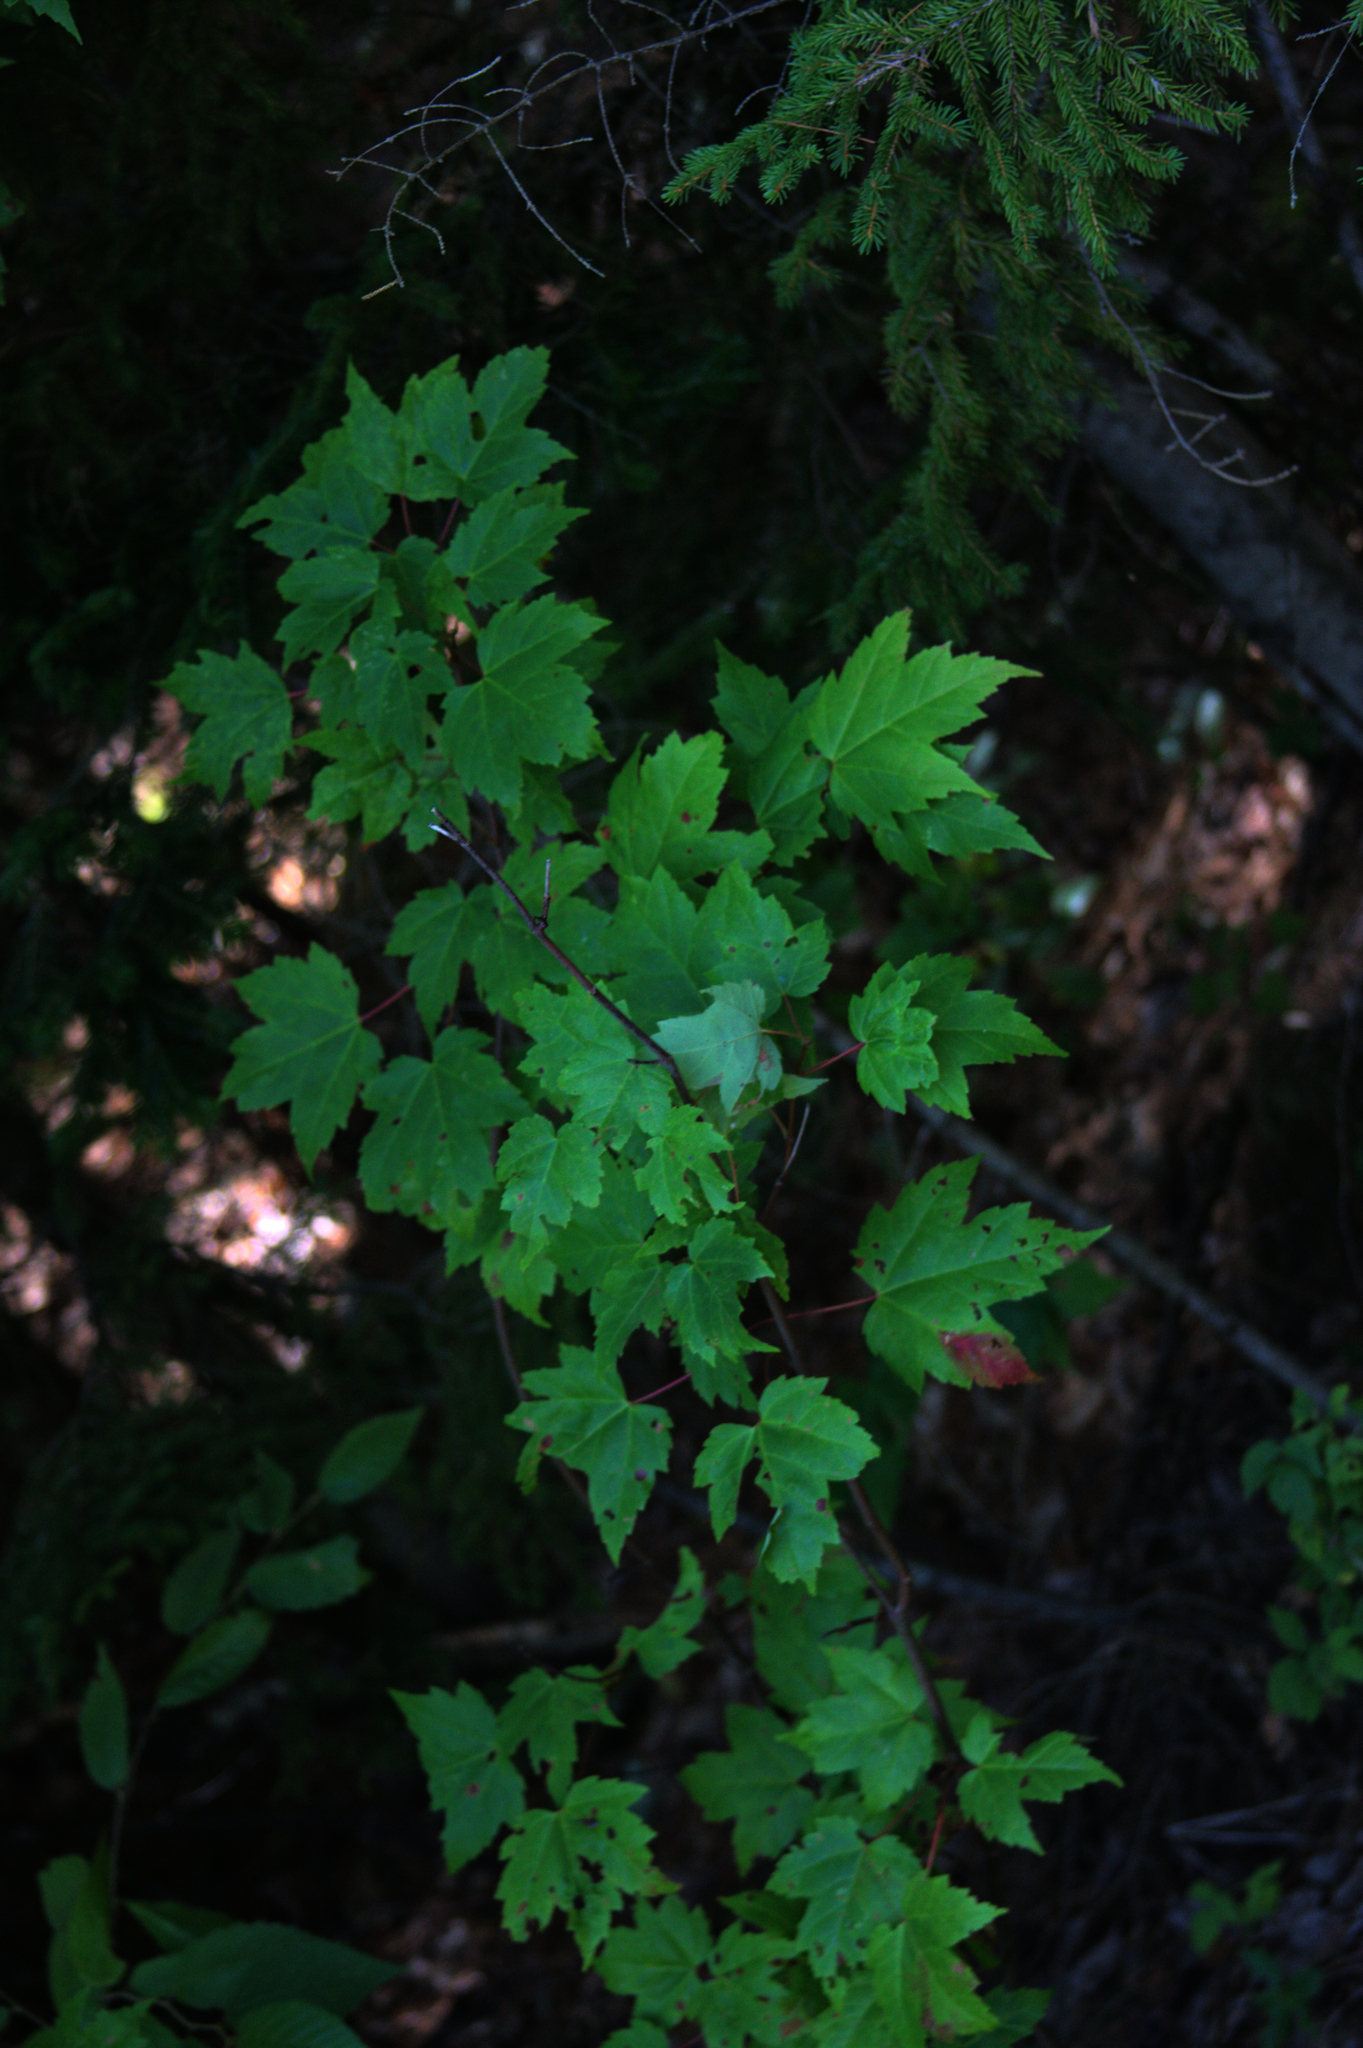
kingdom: Plantae
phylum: Tracheophyta
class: Magnoliopsida
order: Sapindales
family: Sapindaceae
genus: Acer
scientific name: Acer rubrum
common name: Red maple
